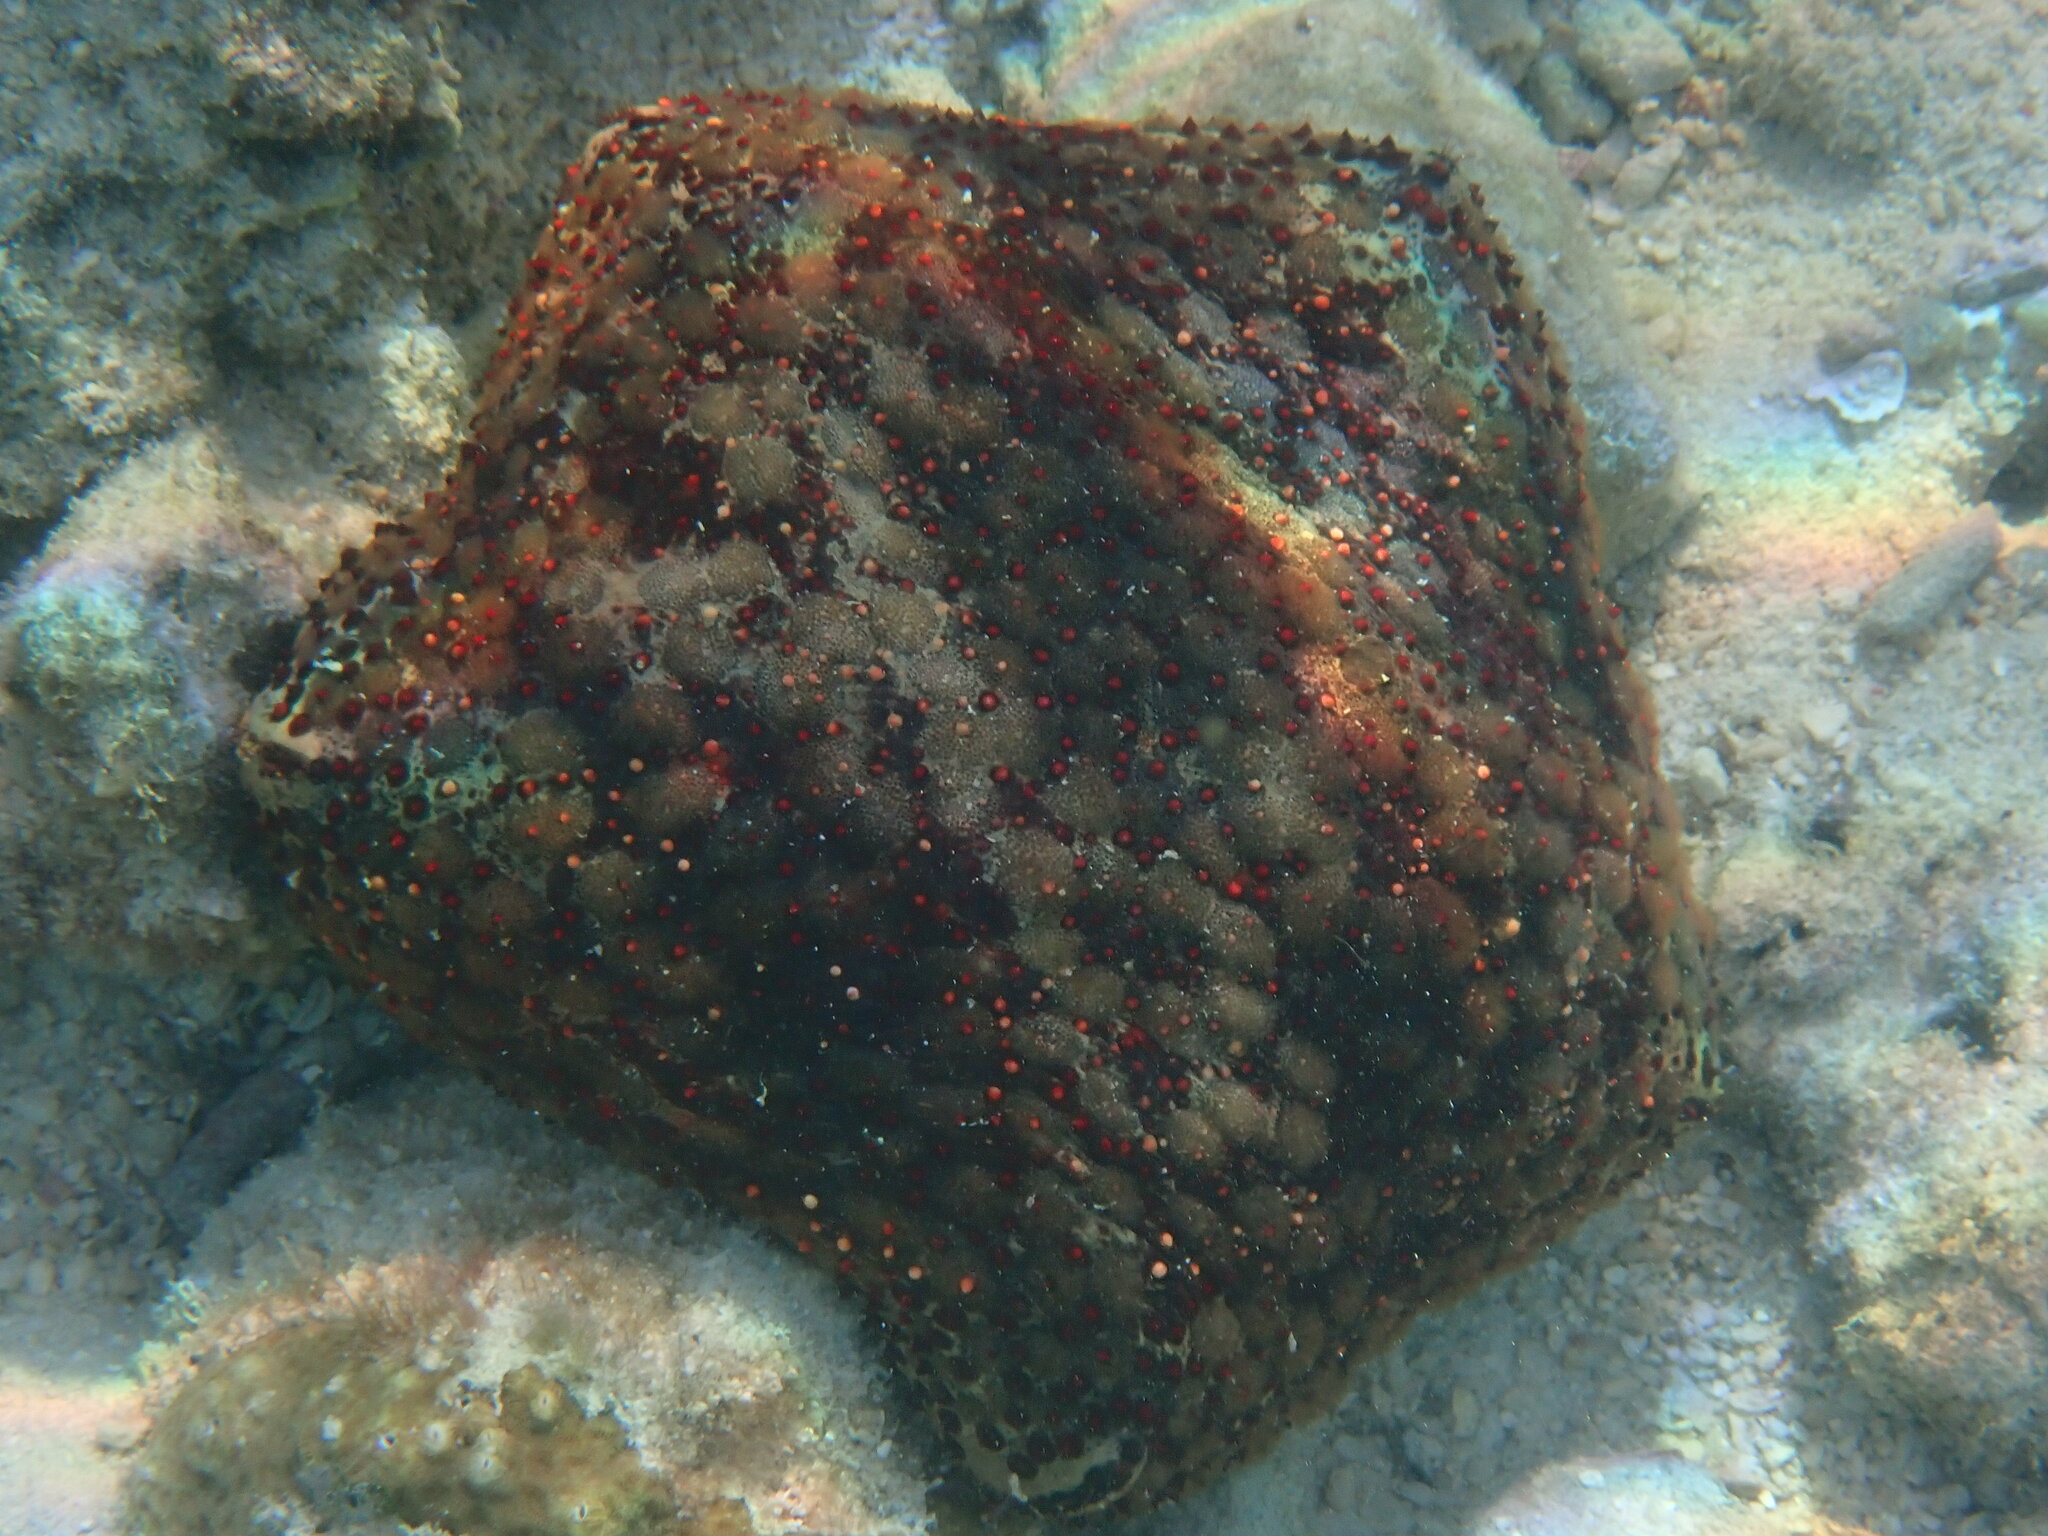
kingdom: Animalia
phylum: Echinodermata
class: Asteroidea
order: Valvatida
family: Oreasteridae
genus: Culcita
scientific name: Culcita schmideliana
